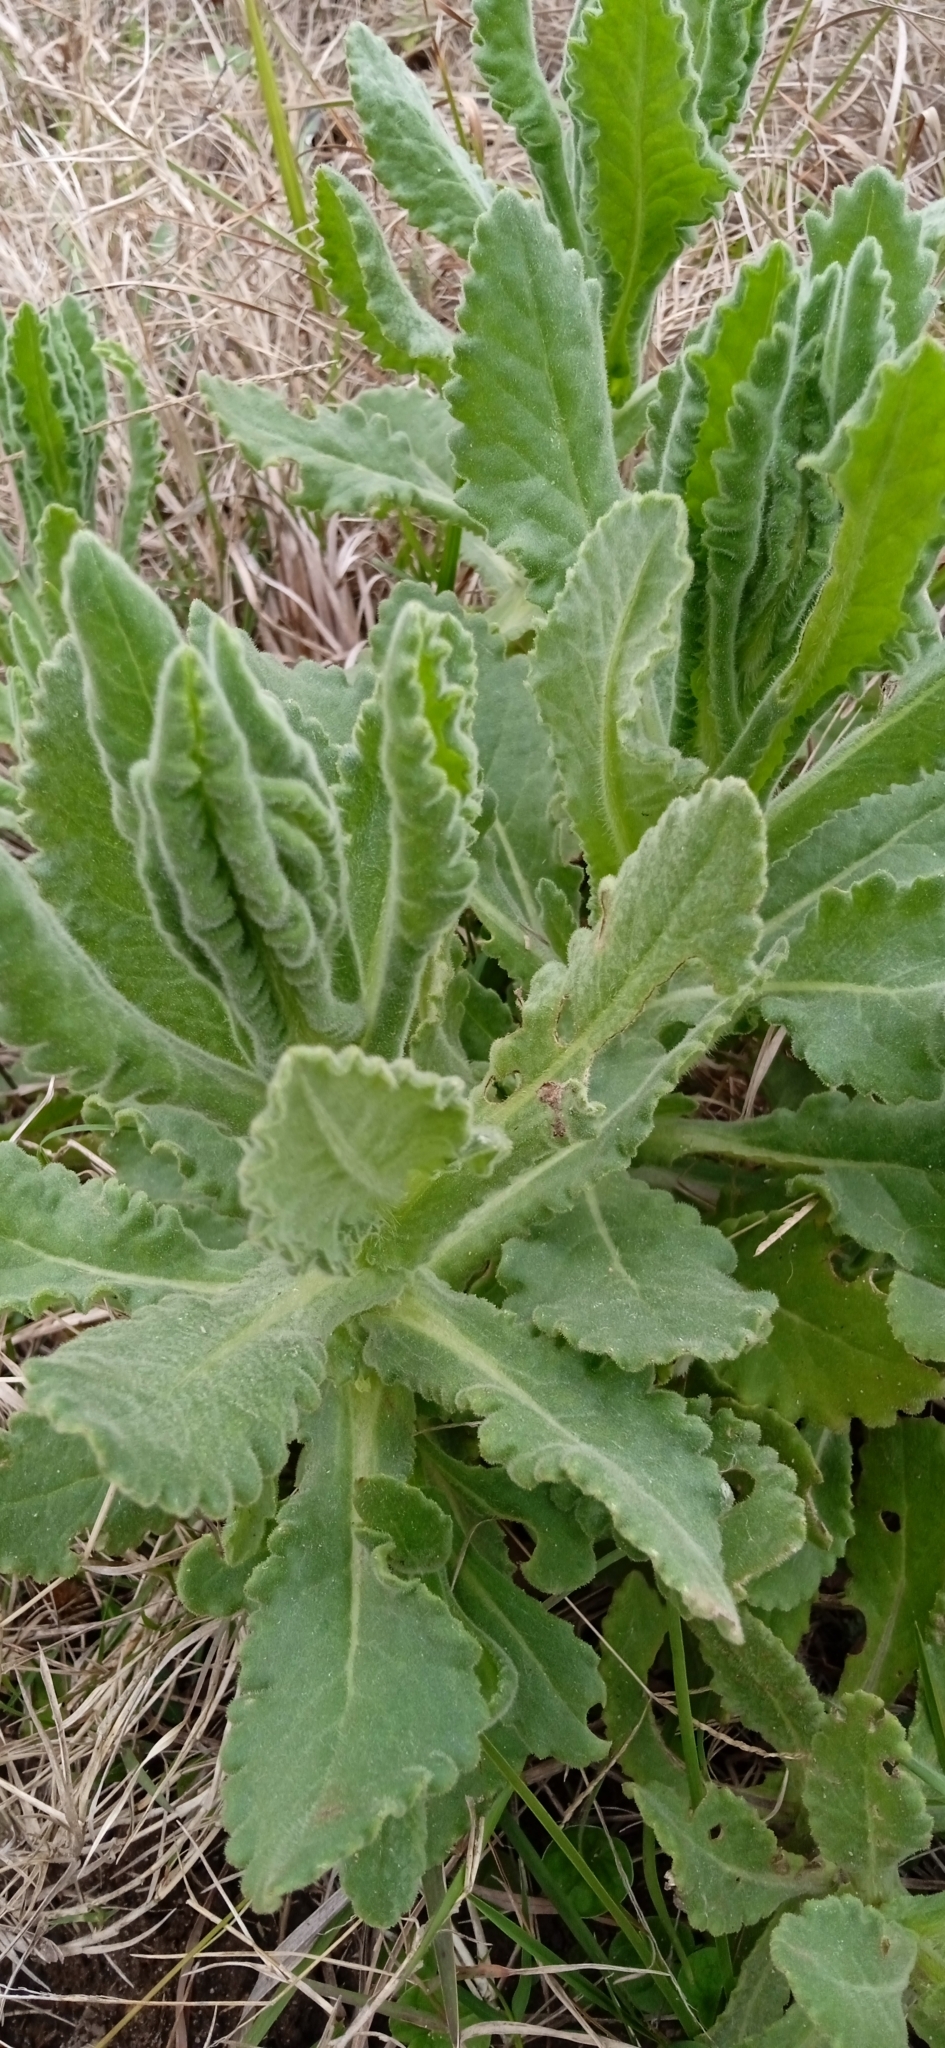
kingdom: Plantae
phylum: Tracheophyta
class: Magnoliopsida
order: Asterales
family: Asteraceae
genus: Senecio
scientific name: Senecio selloi
